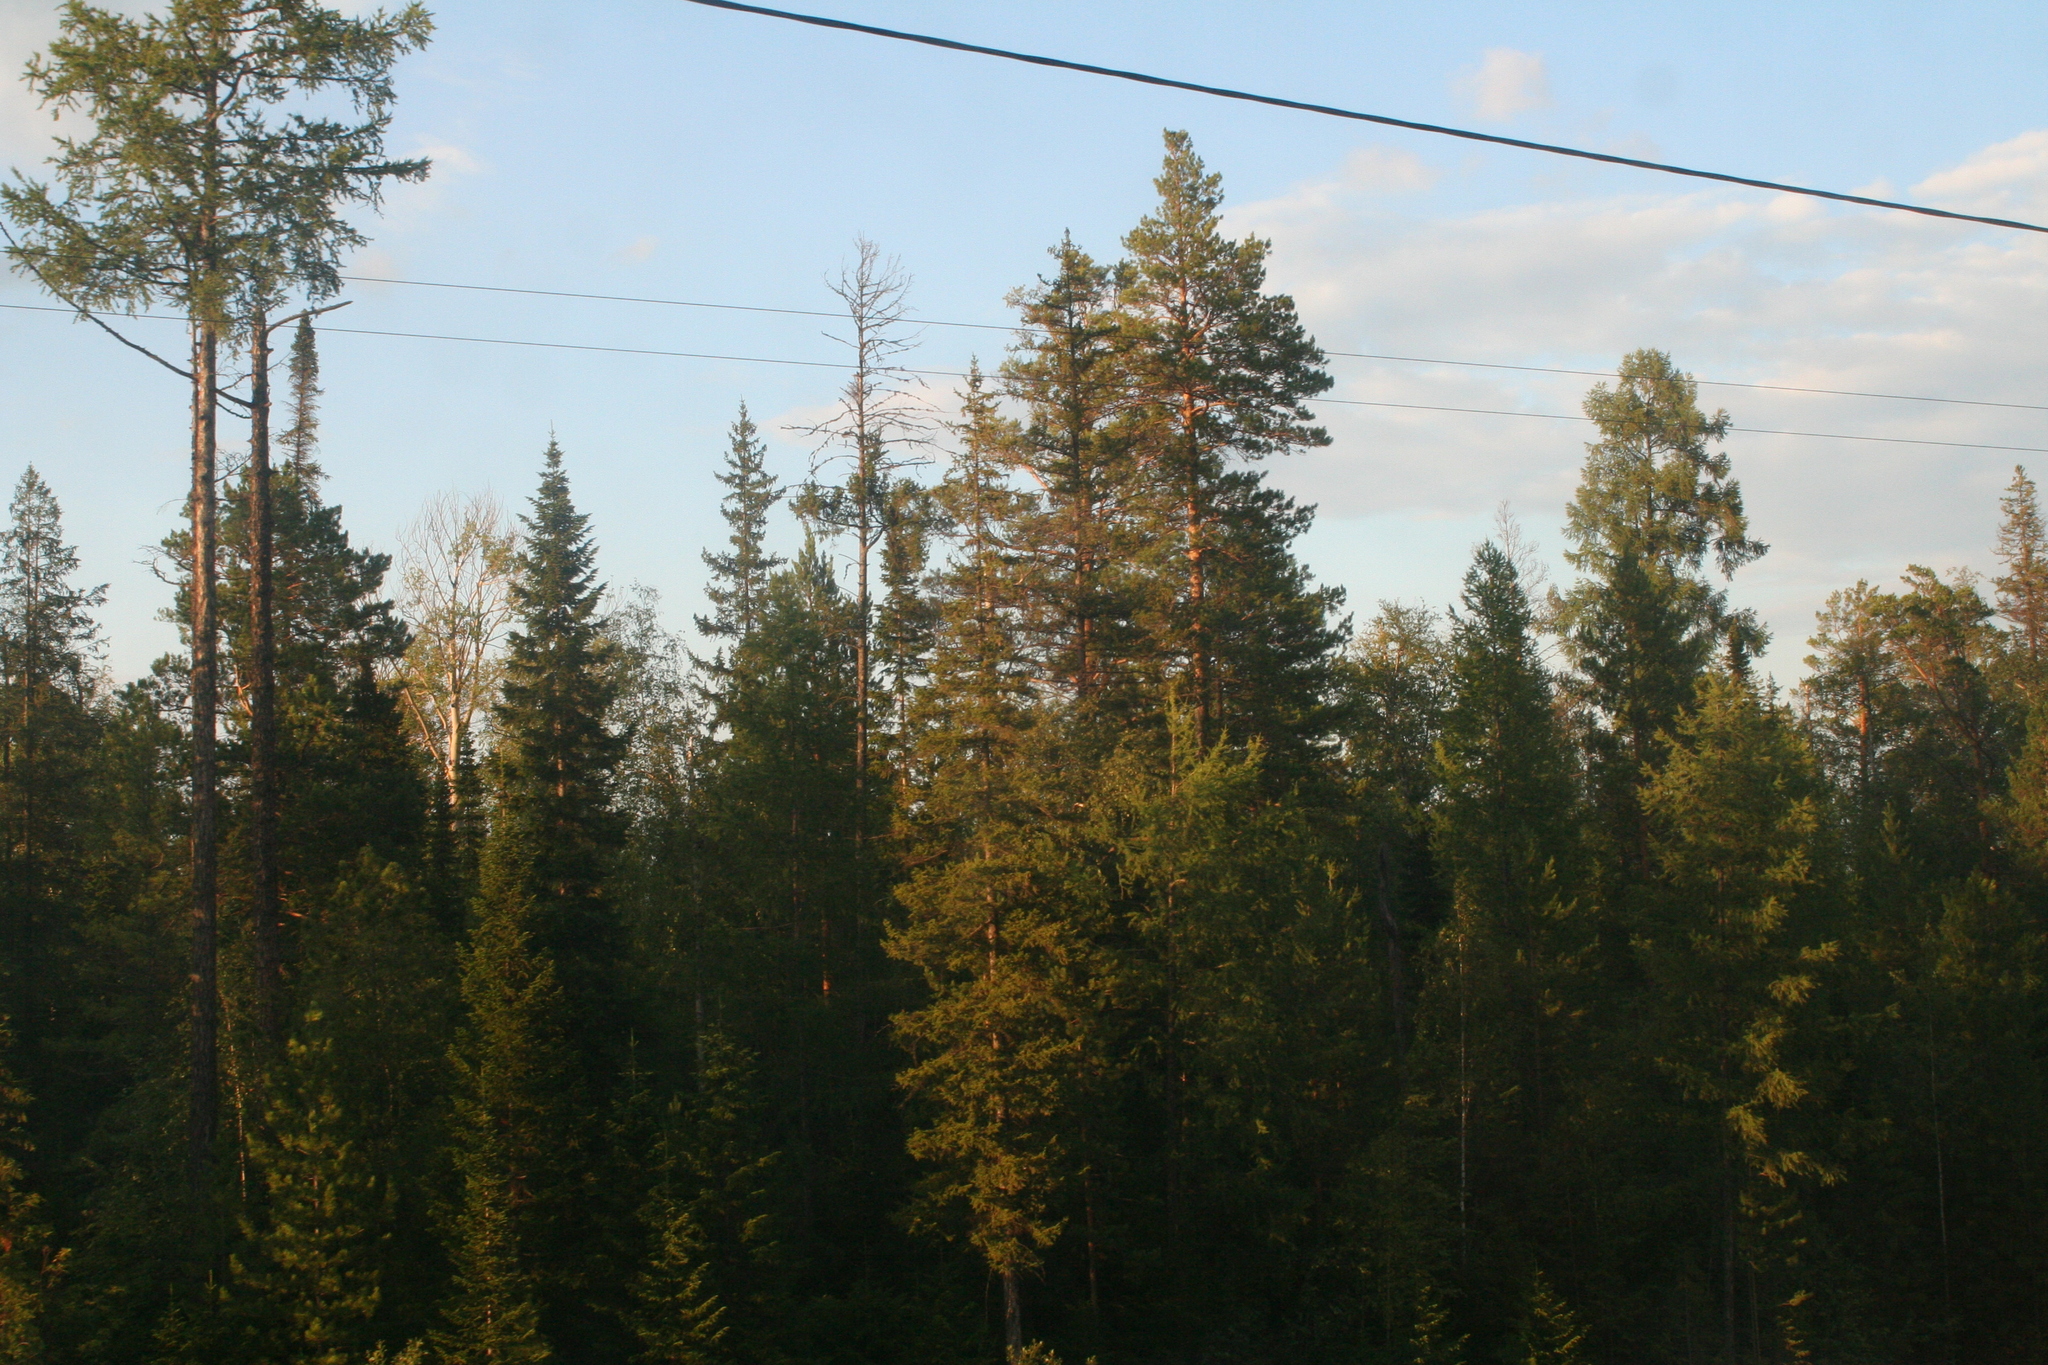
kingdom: Plantae
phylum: Tracheophyta
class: Pinopsida
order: Pinales
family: Pinaceae
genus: Pinus
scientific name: Pinus sylvestris
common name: Scots pine
